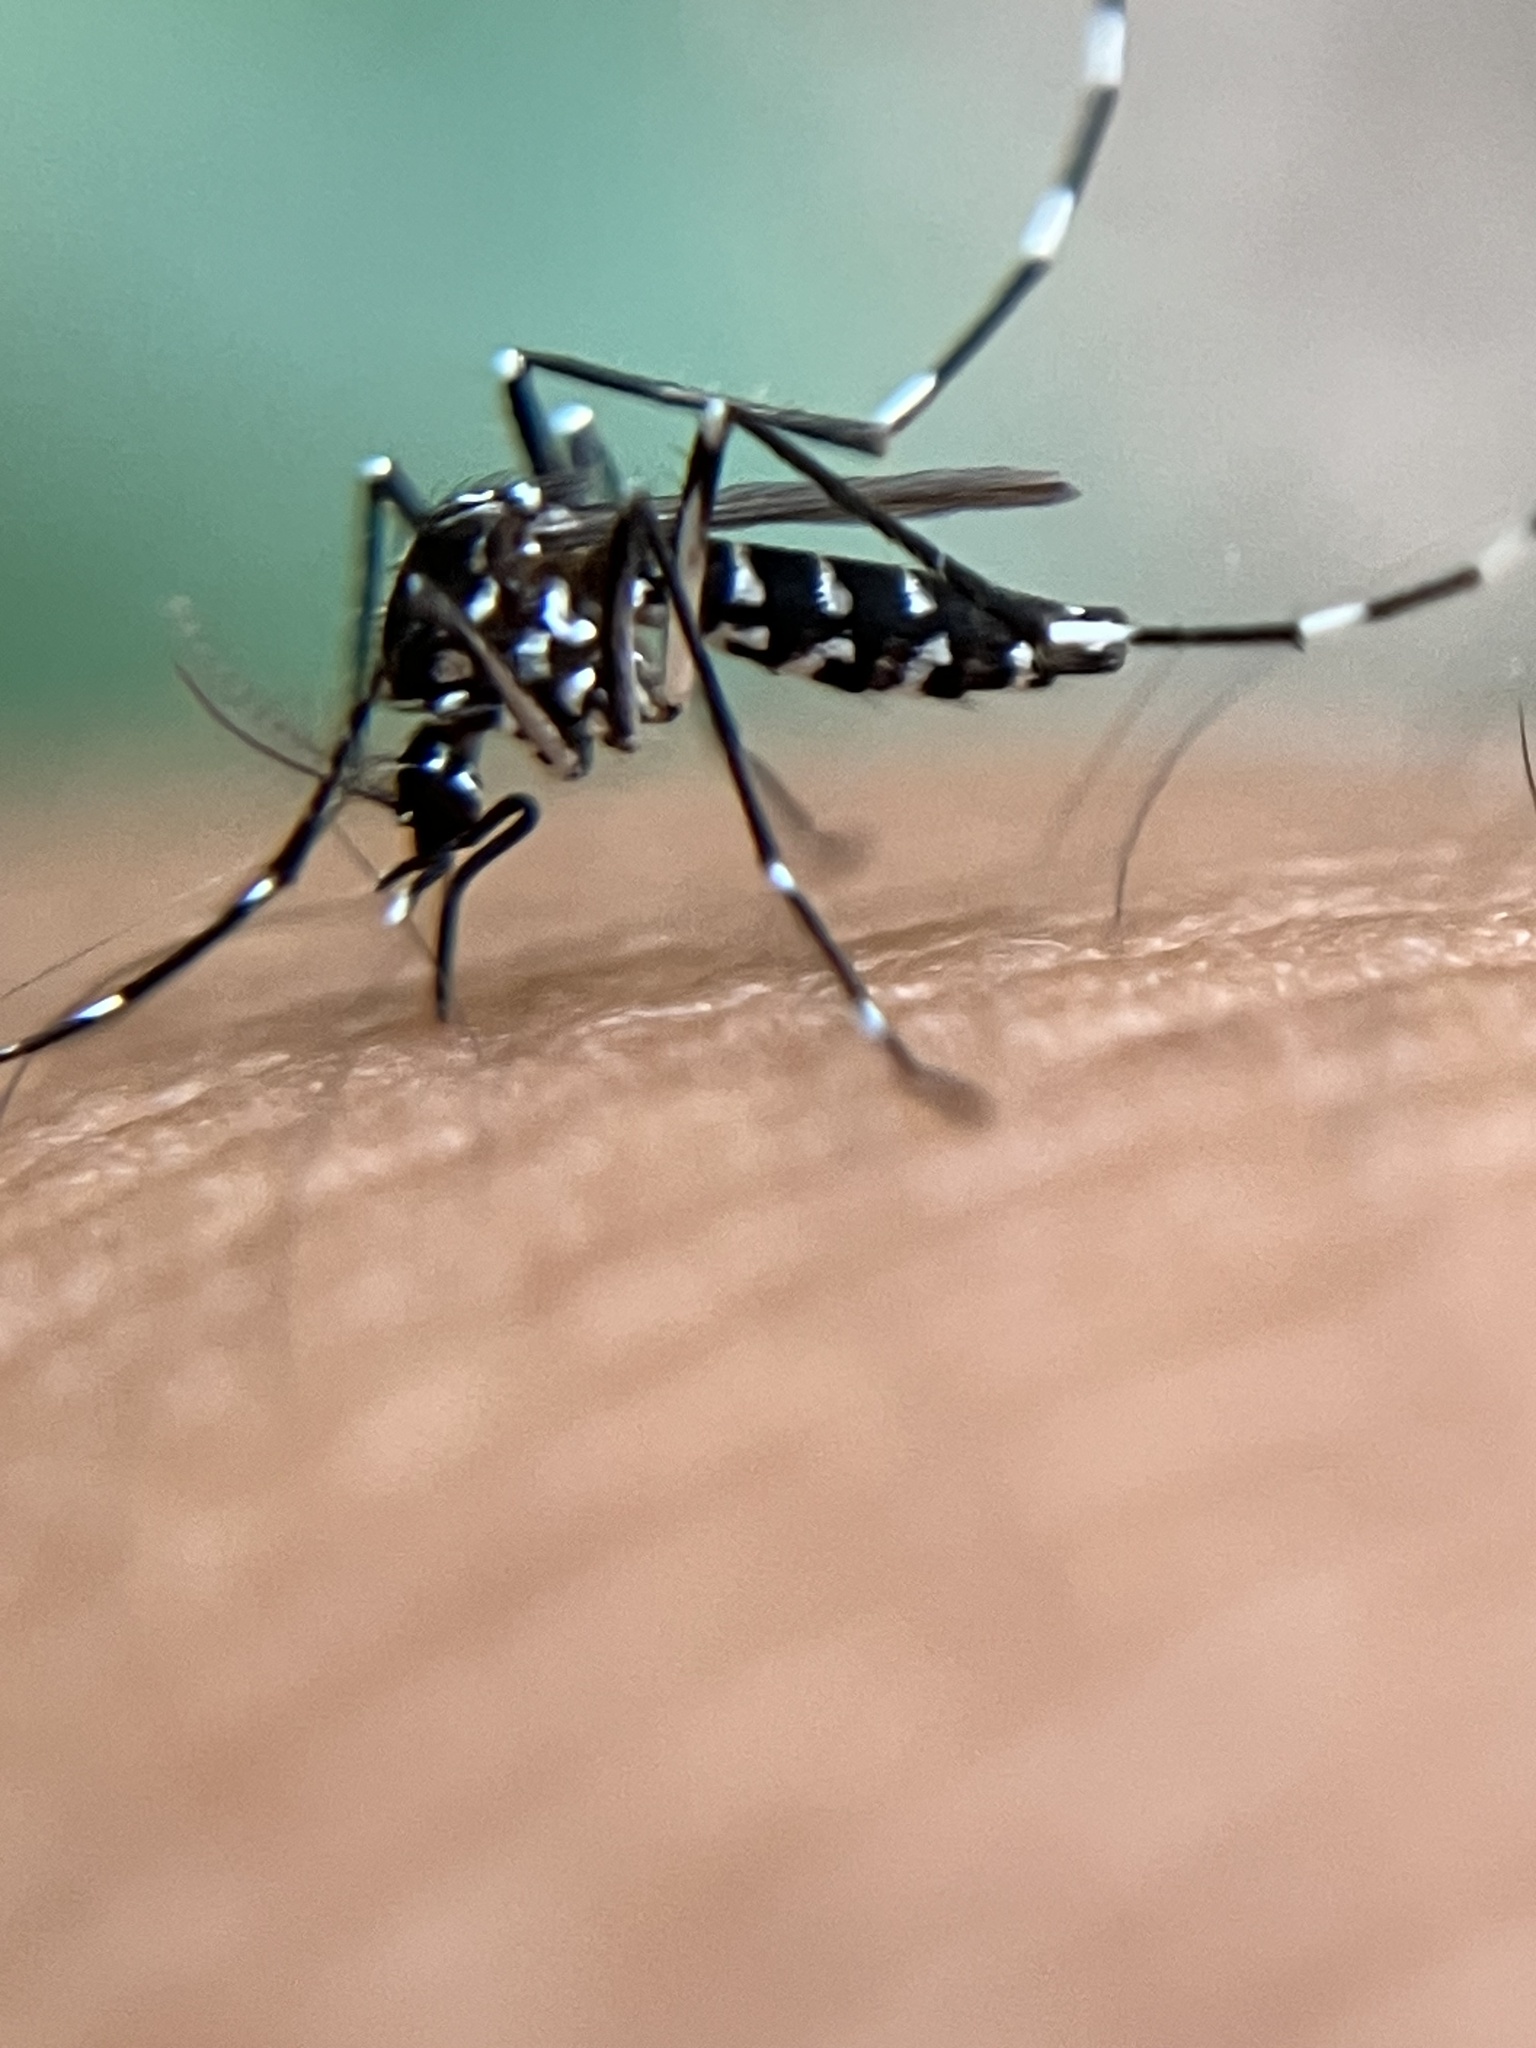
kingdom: Animalia
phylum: Arthropoda
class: Insecta
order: Diptera
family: Culicidae
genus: Aedes
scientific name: Aedes albopictus
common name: Tiger mosquito
